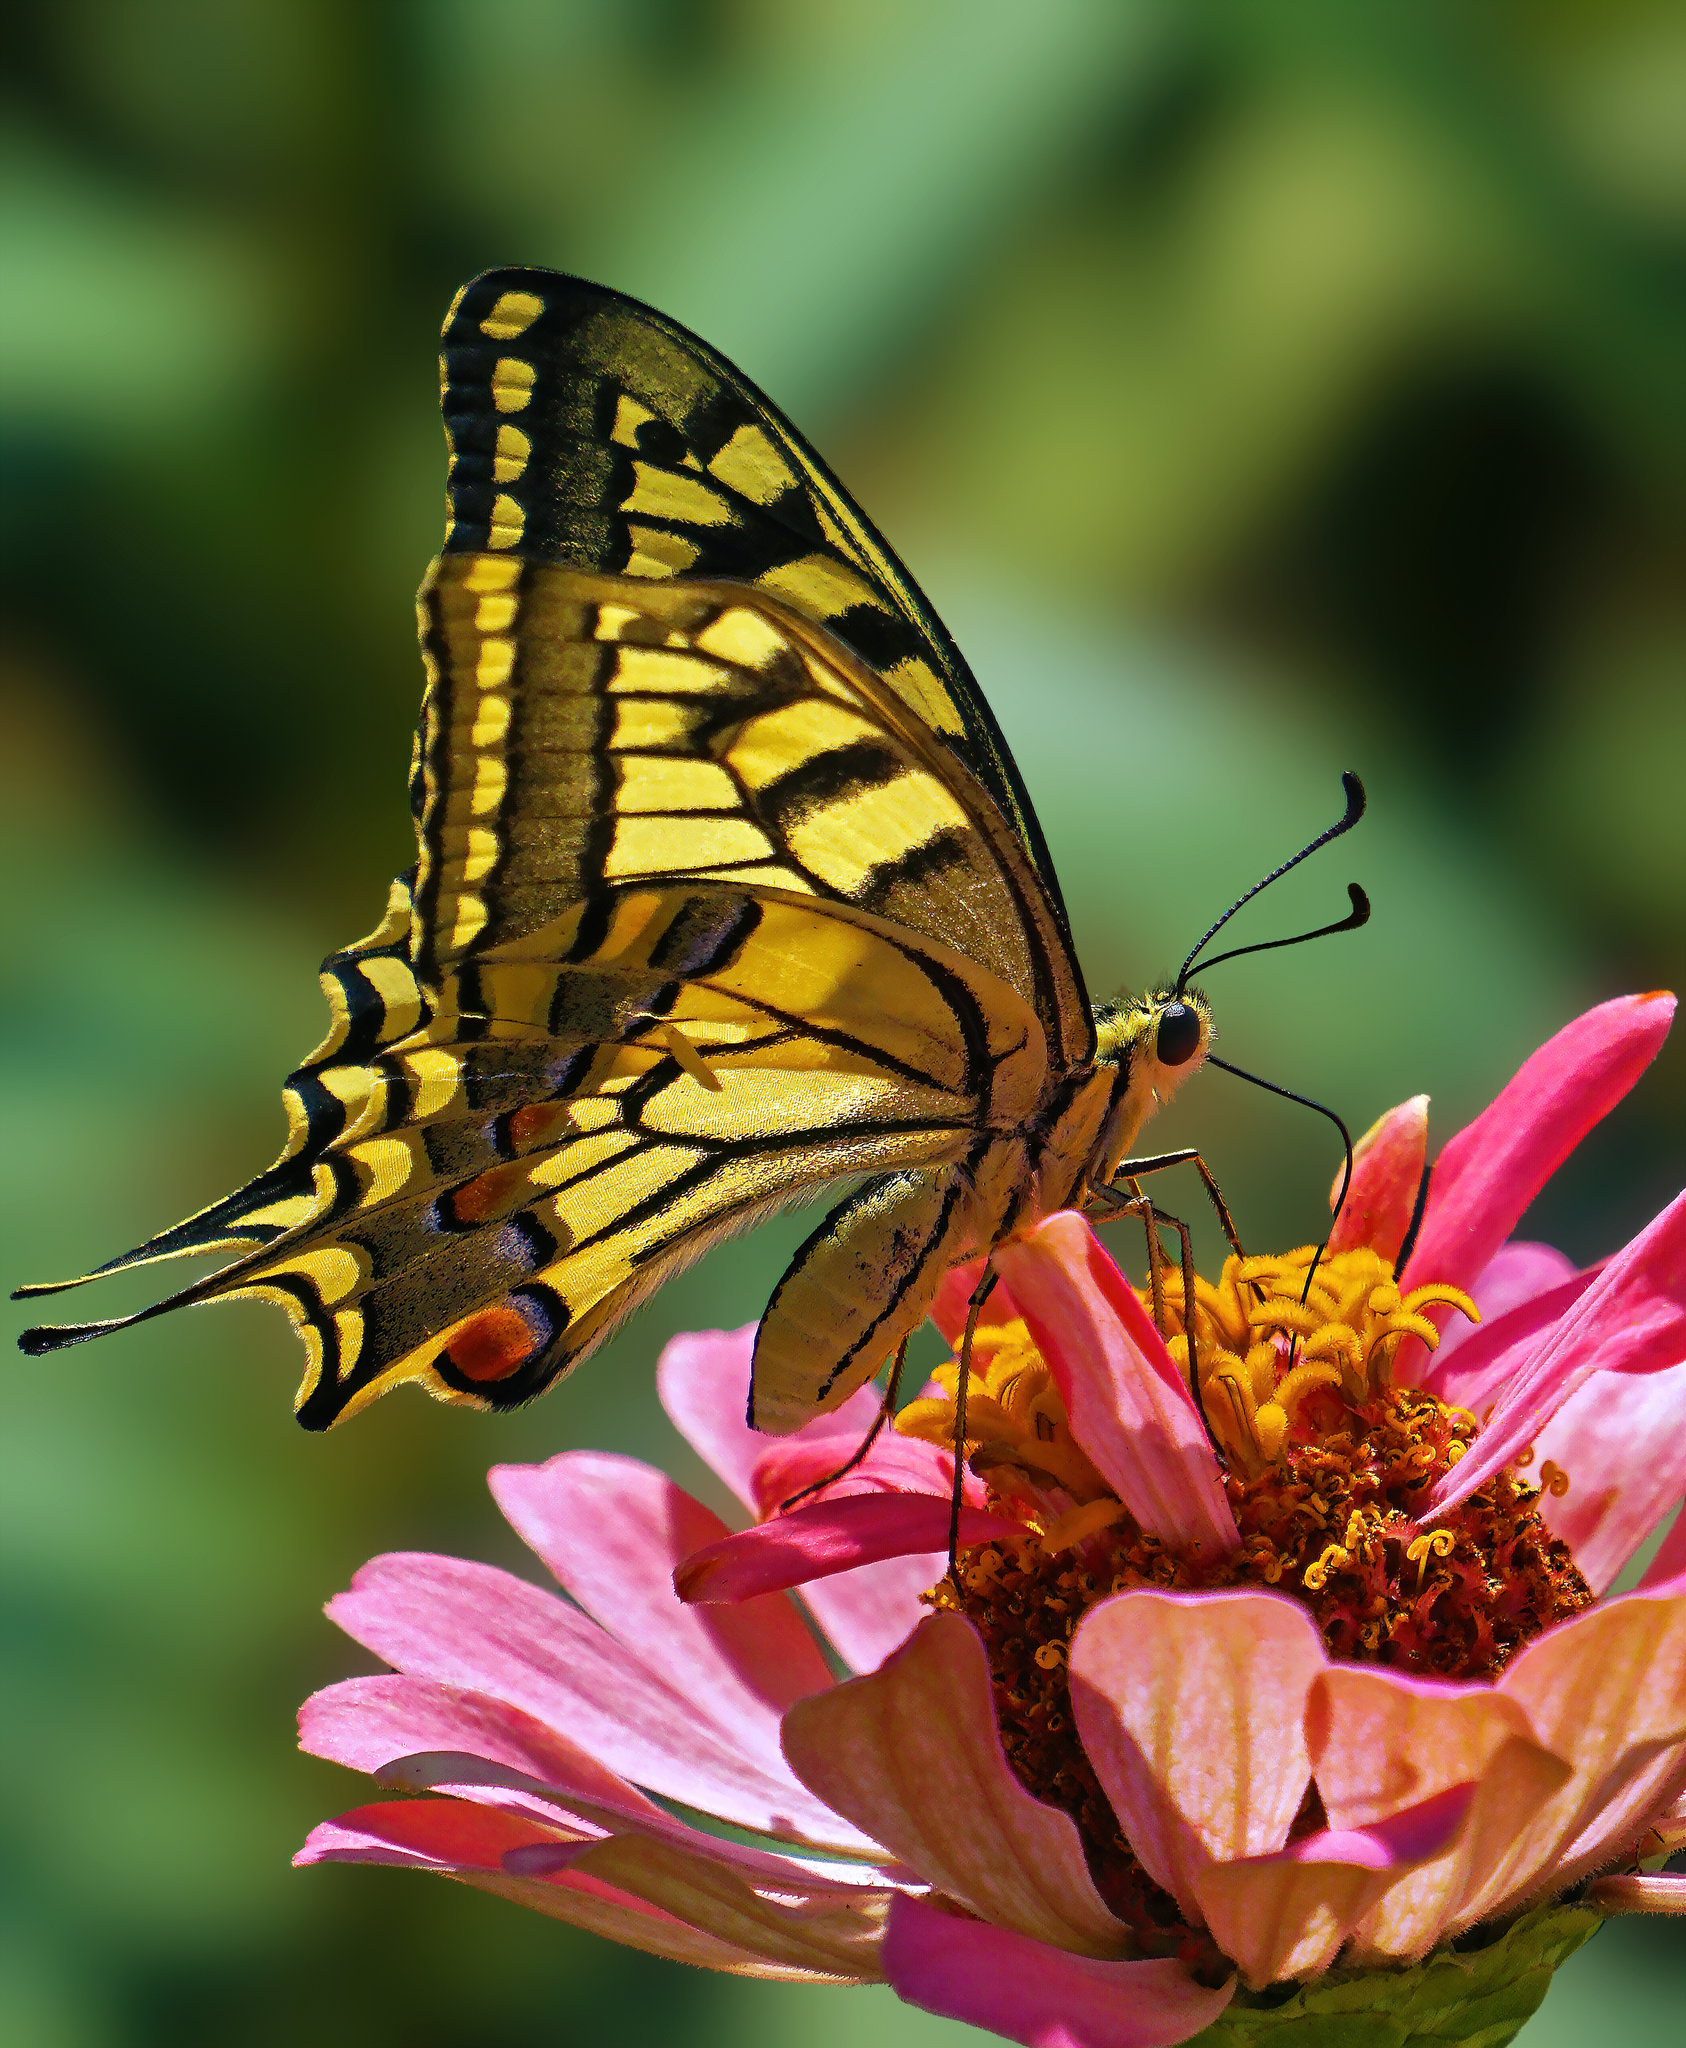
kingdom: Animalia
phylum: Arthropoda
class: Insecta
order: Lepidoptera
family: Papilionidae
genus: Papilio
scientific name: Papilio machaon
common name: Swallowtail
